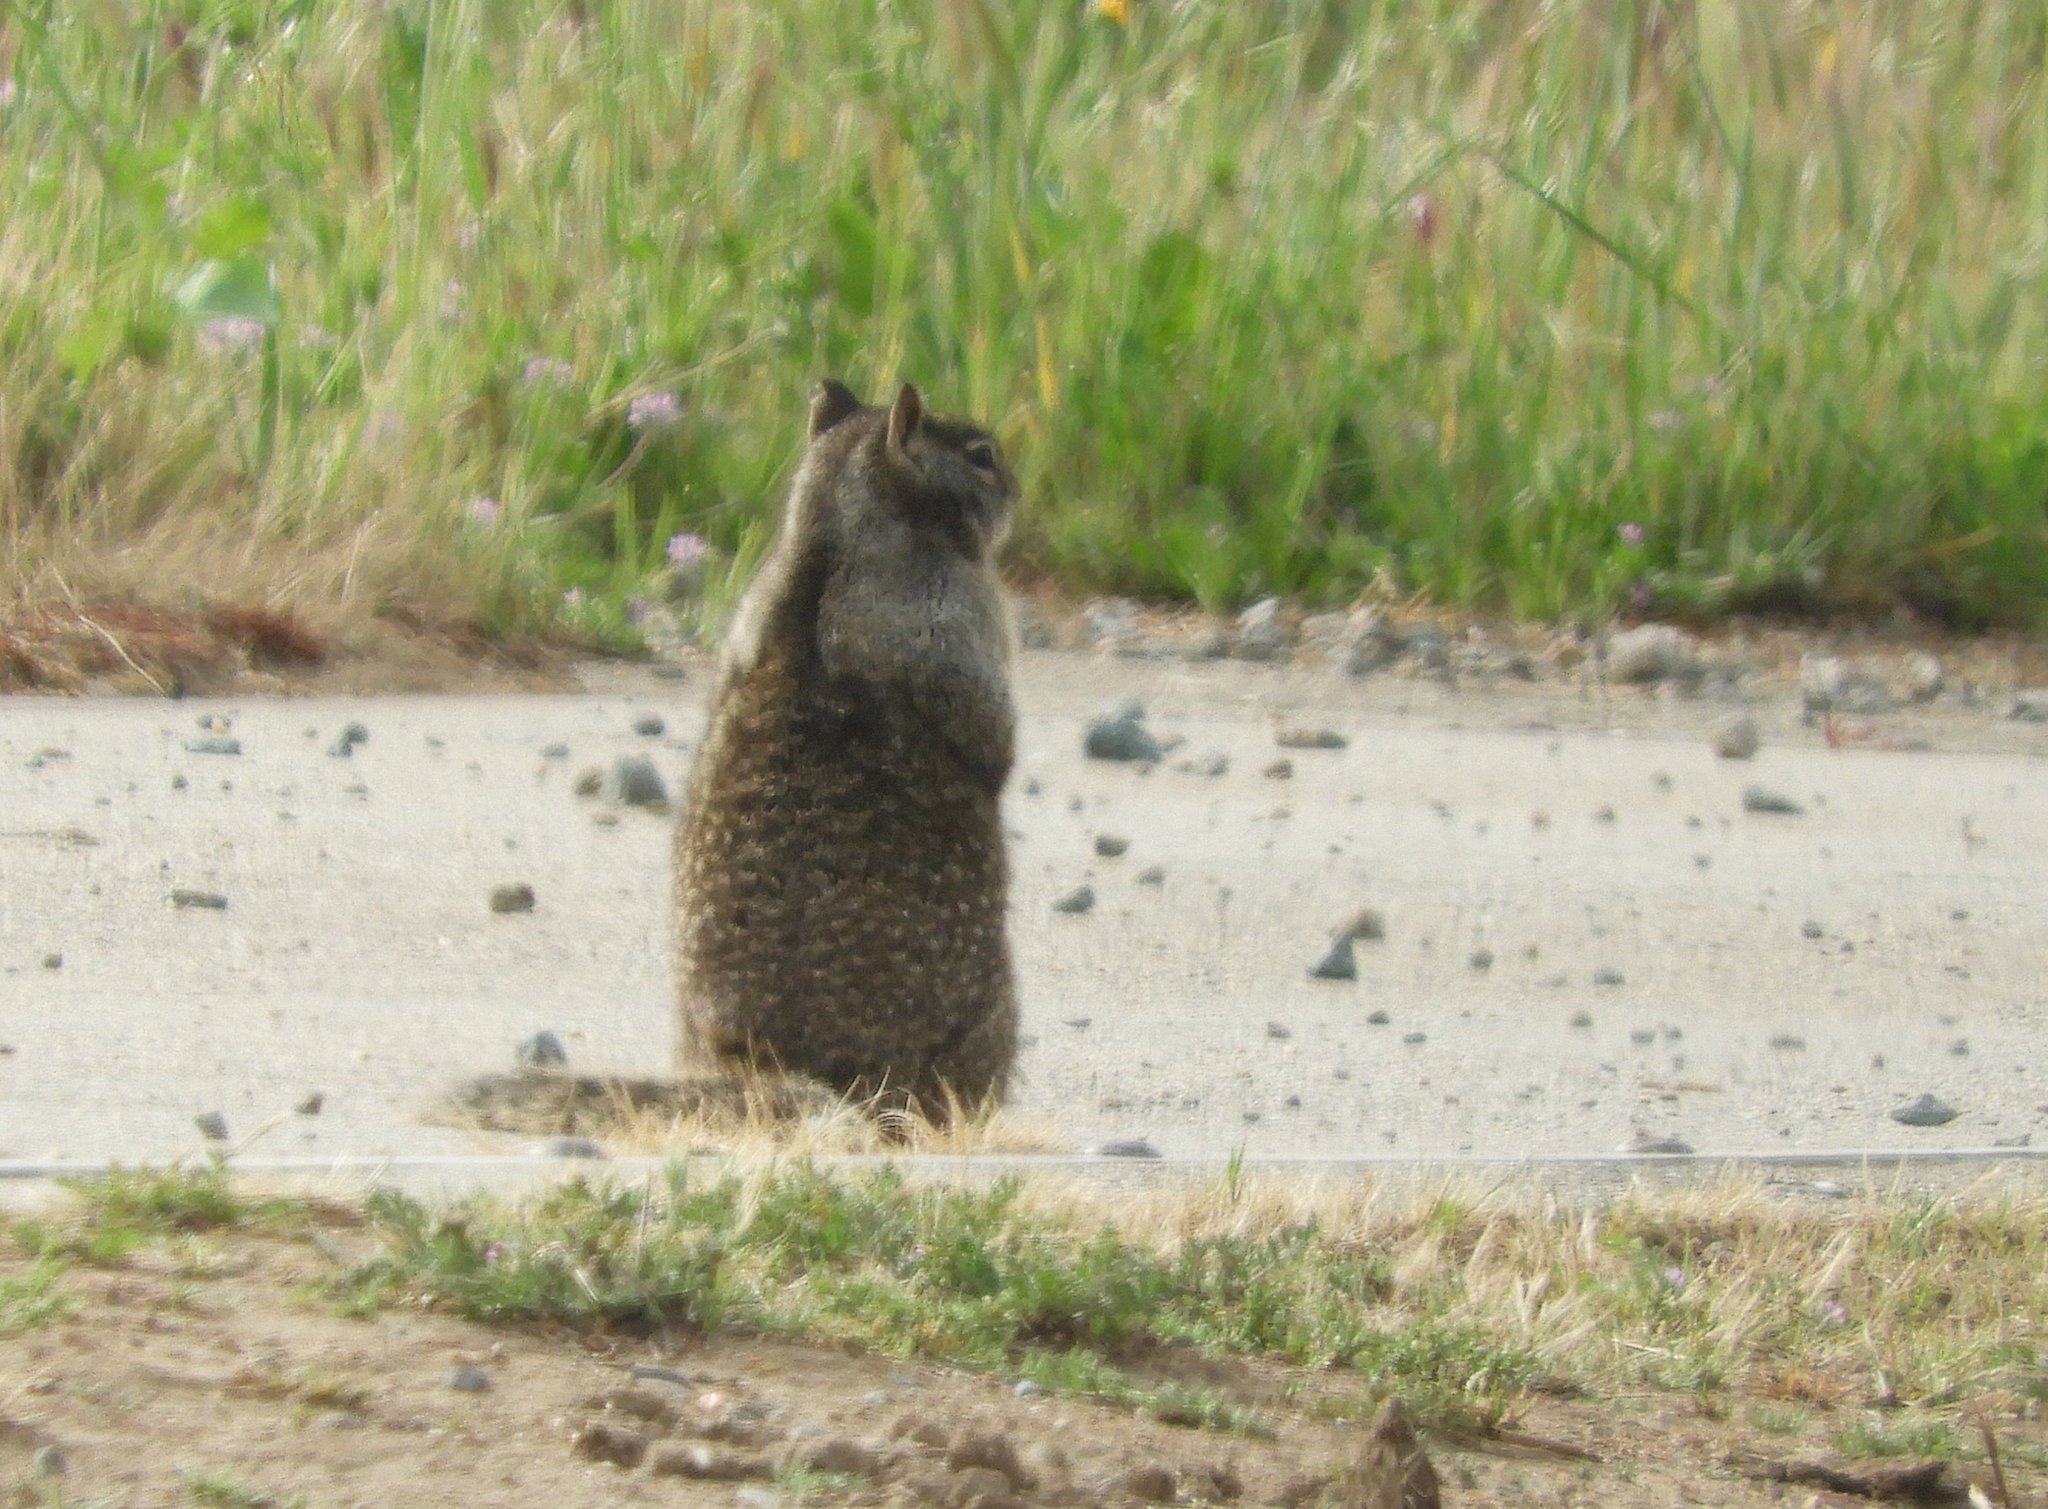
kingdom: Animalia
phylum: Chordata
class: Mammalia
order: Rodentia
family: Sciuridae
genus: Otospermophilus
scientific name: Otospermophilus beecheyi
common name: California ground squirrel
